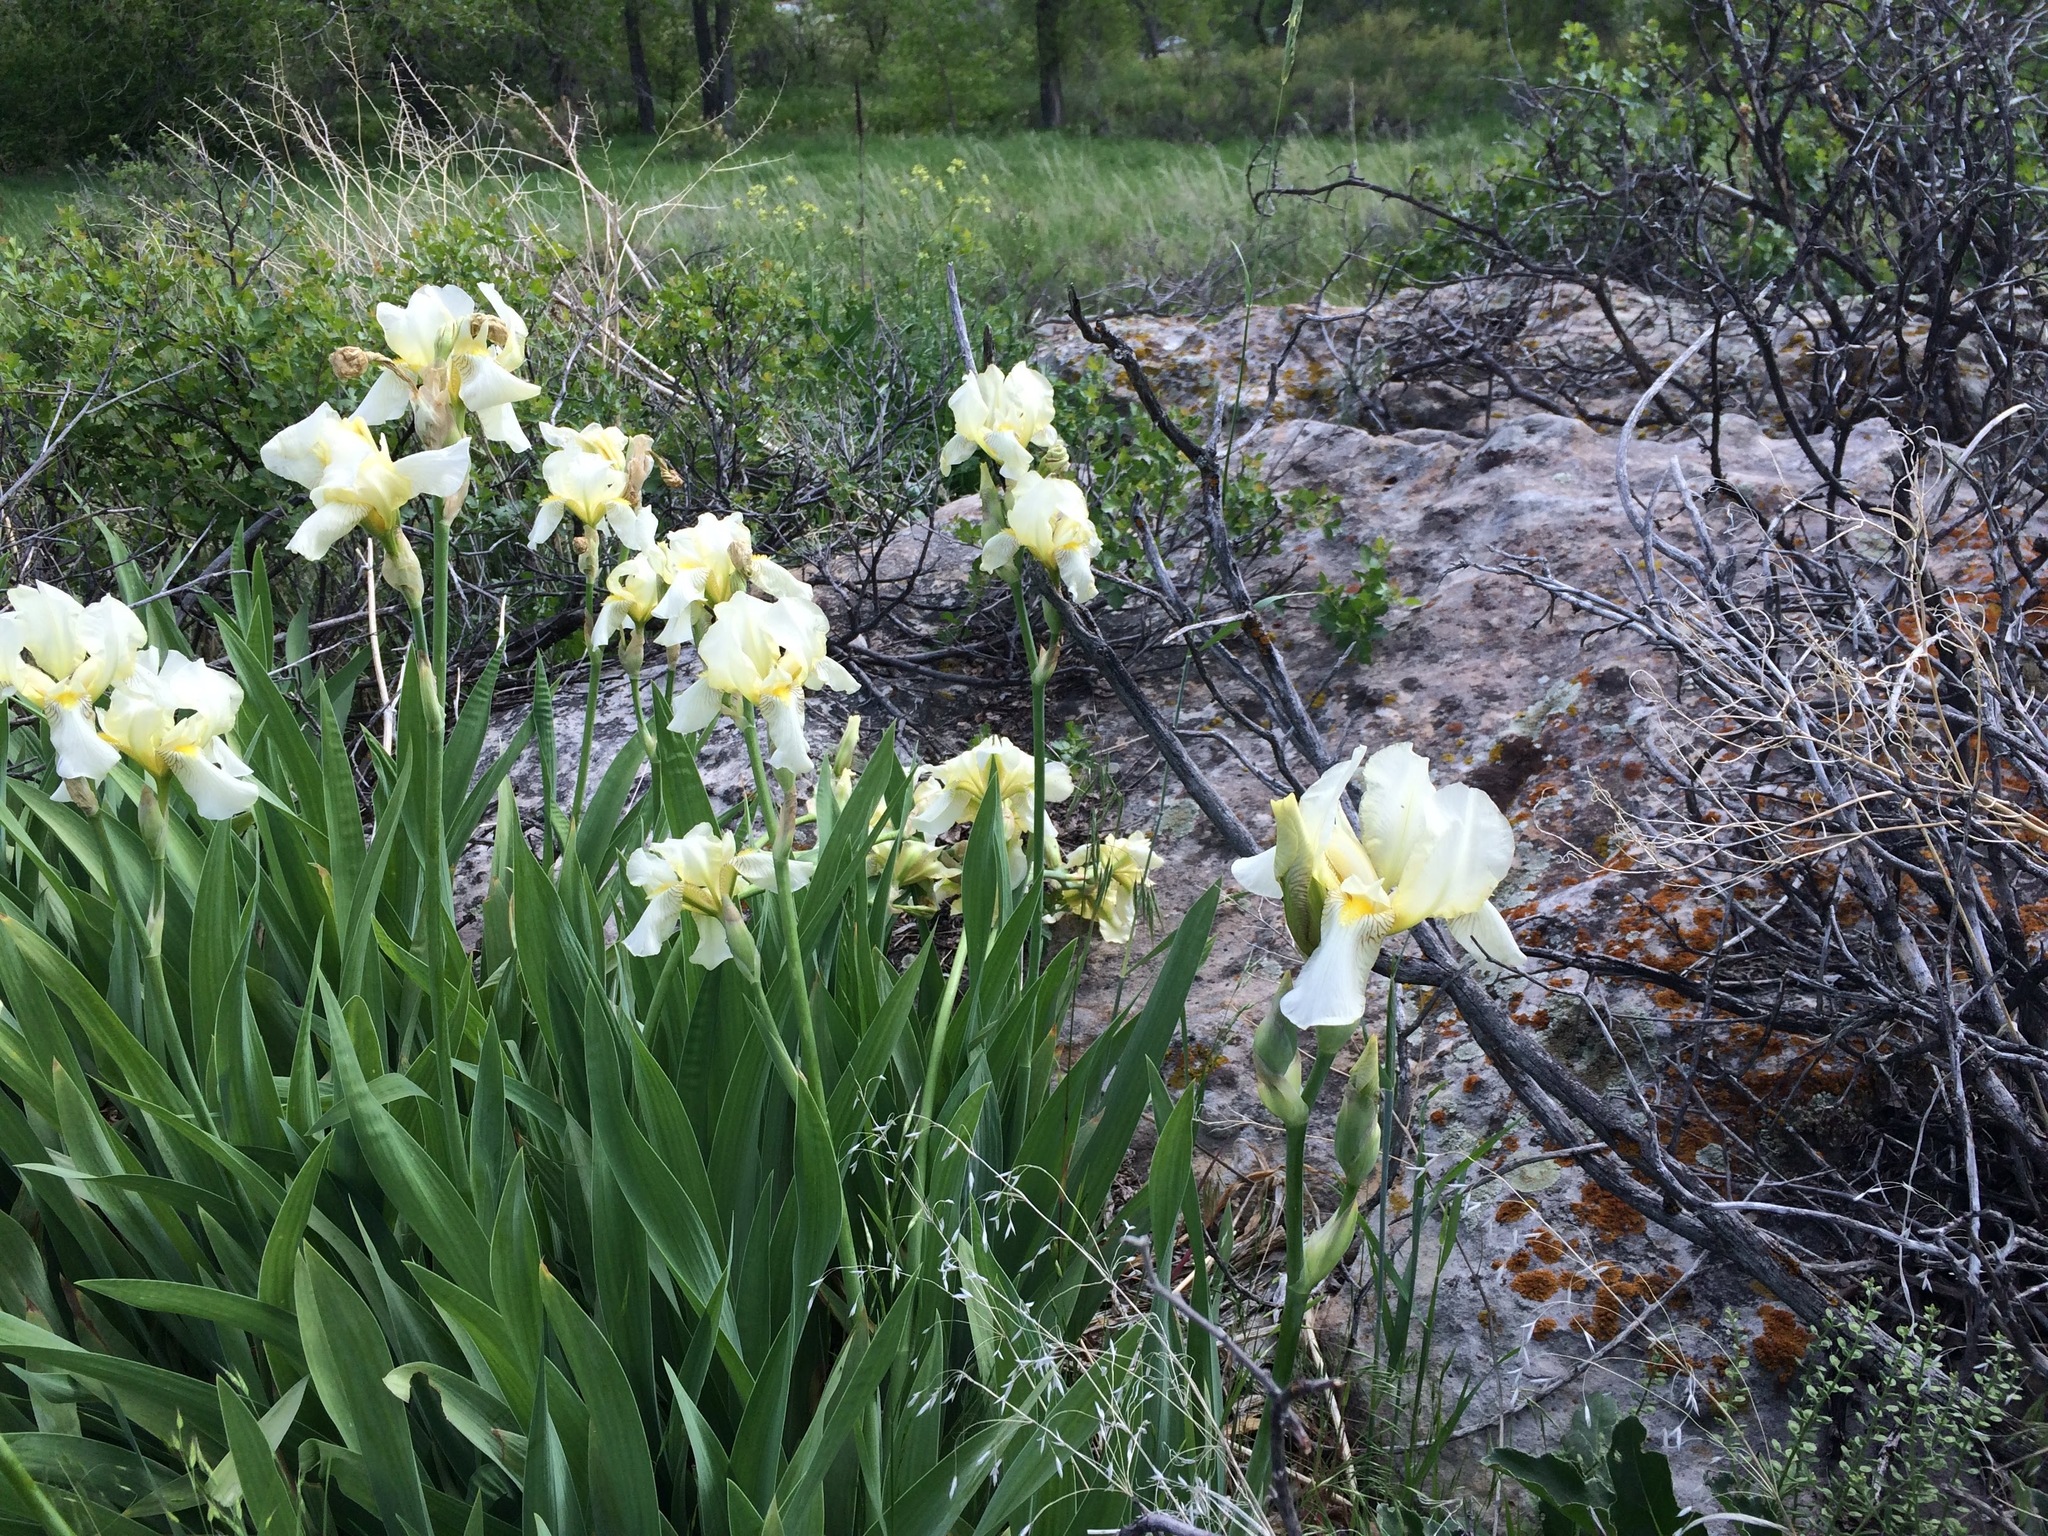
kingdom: Plantae
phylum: Tracheophyta
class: Liliopsida
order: Asparagales
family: Iridaceae
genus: Iris
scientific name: Iris
